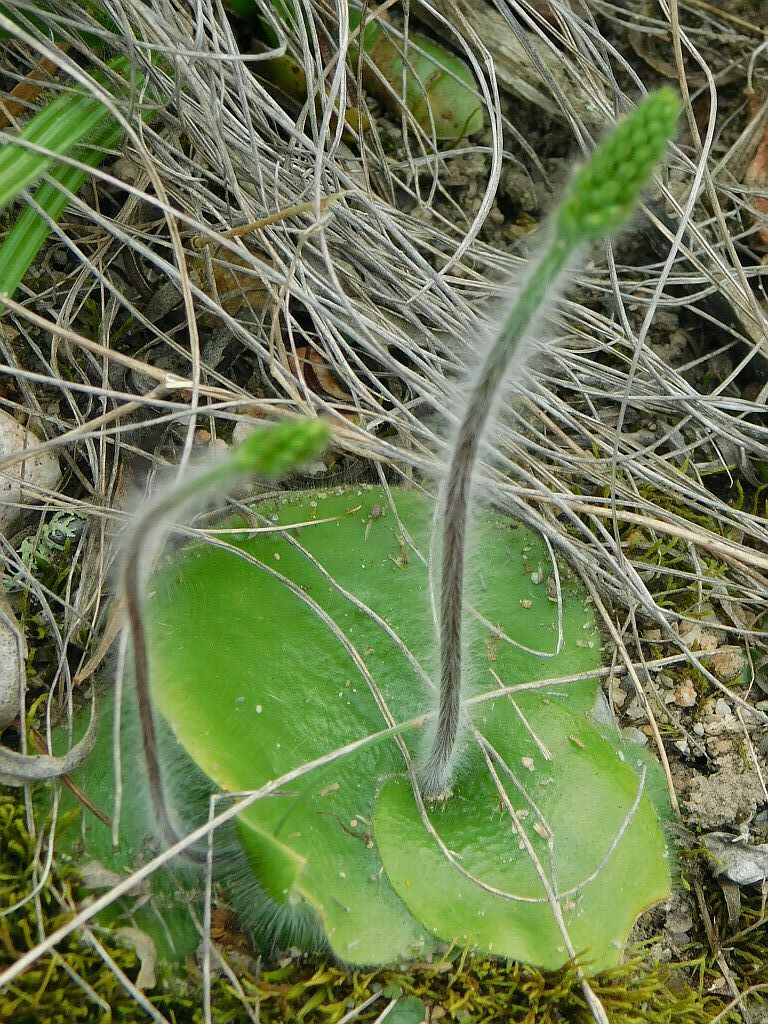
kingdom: Plantae
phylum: Tracheophyta
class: Liliopsida
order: Asparagales
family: Orchidaceae
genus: Holothrix
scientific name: Holothrix villosa
